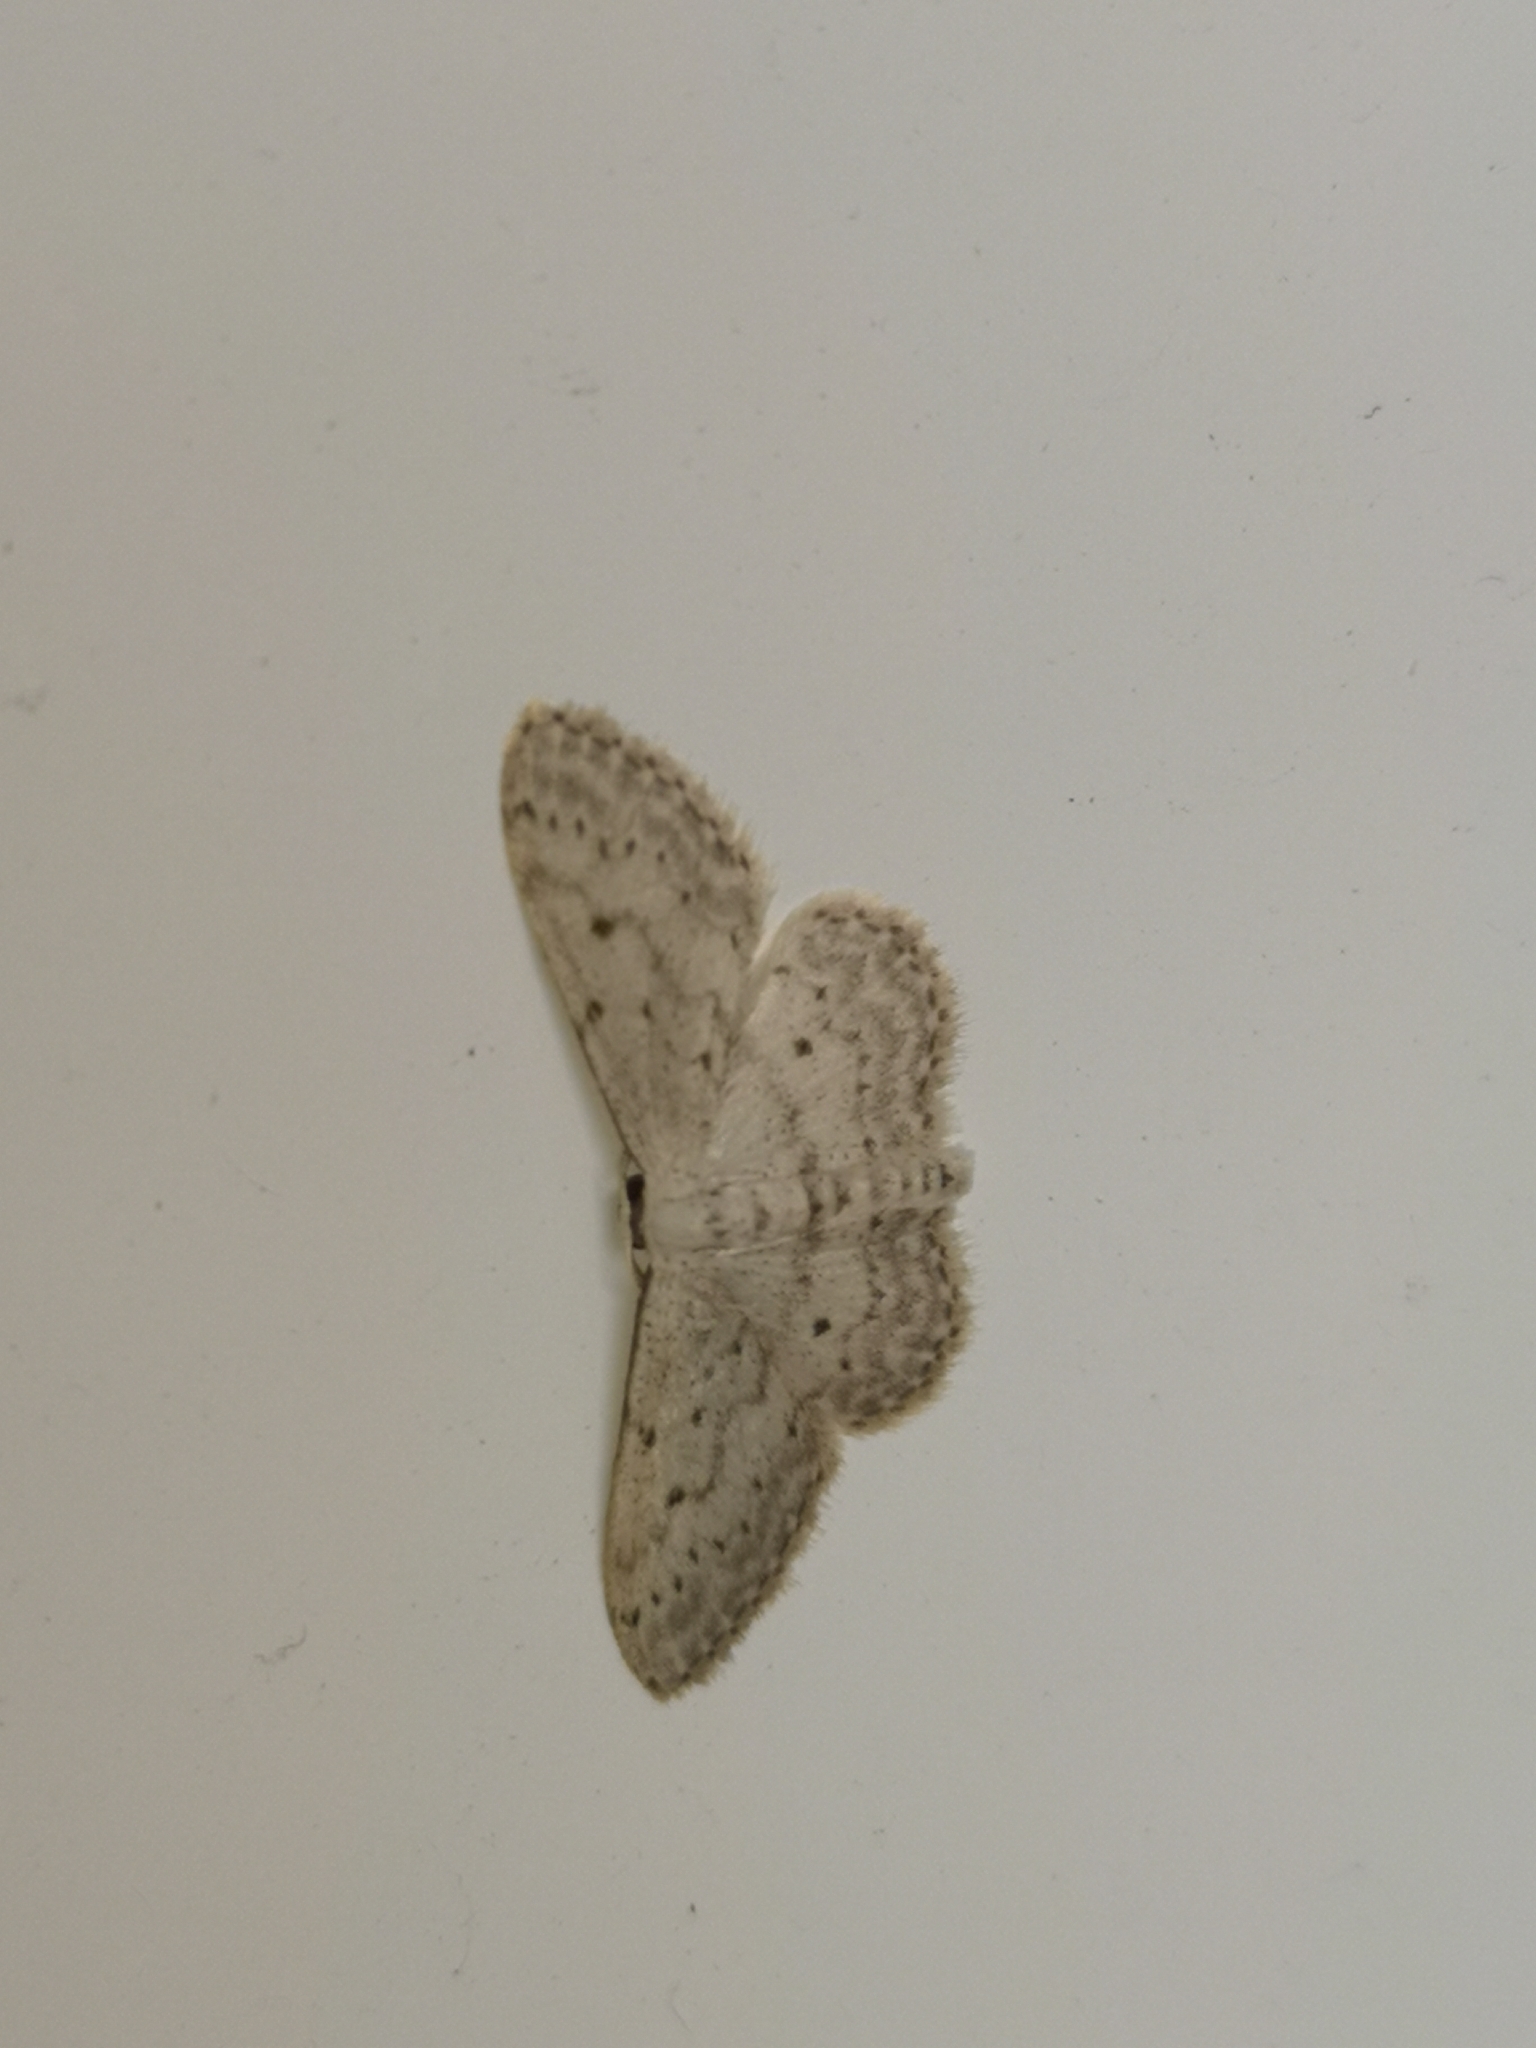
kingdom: Animalia
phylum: Arthropoda
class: Insecta
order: Lepidoptera
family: Geometridae
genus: Idaea
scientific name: Idaea seriata
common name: Small dusty wave
